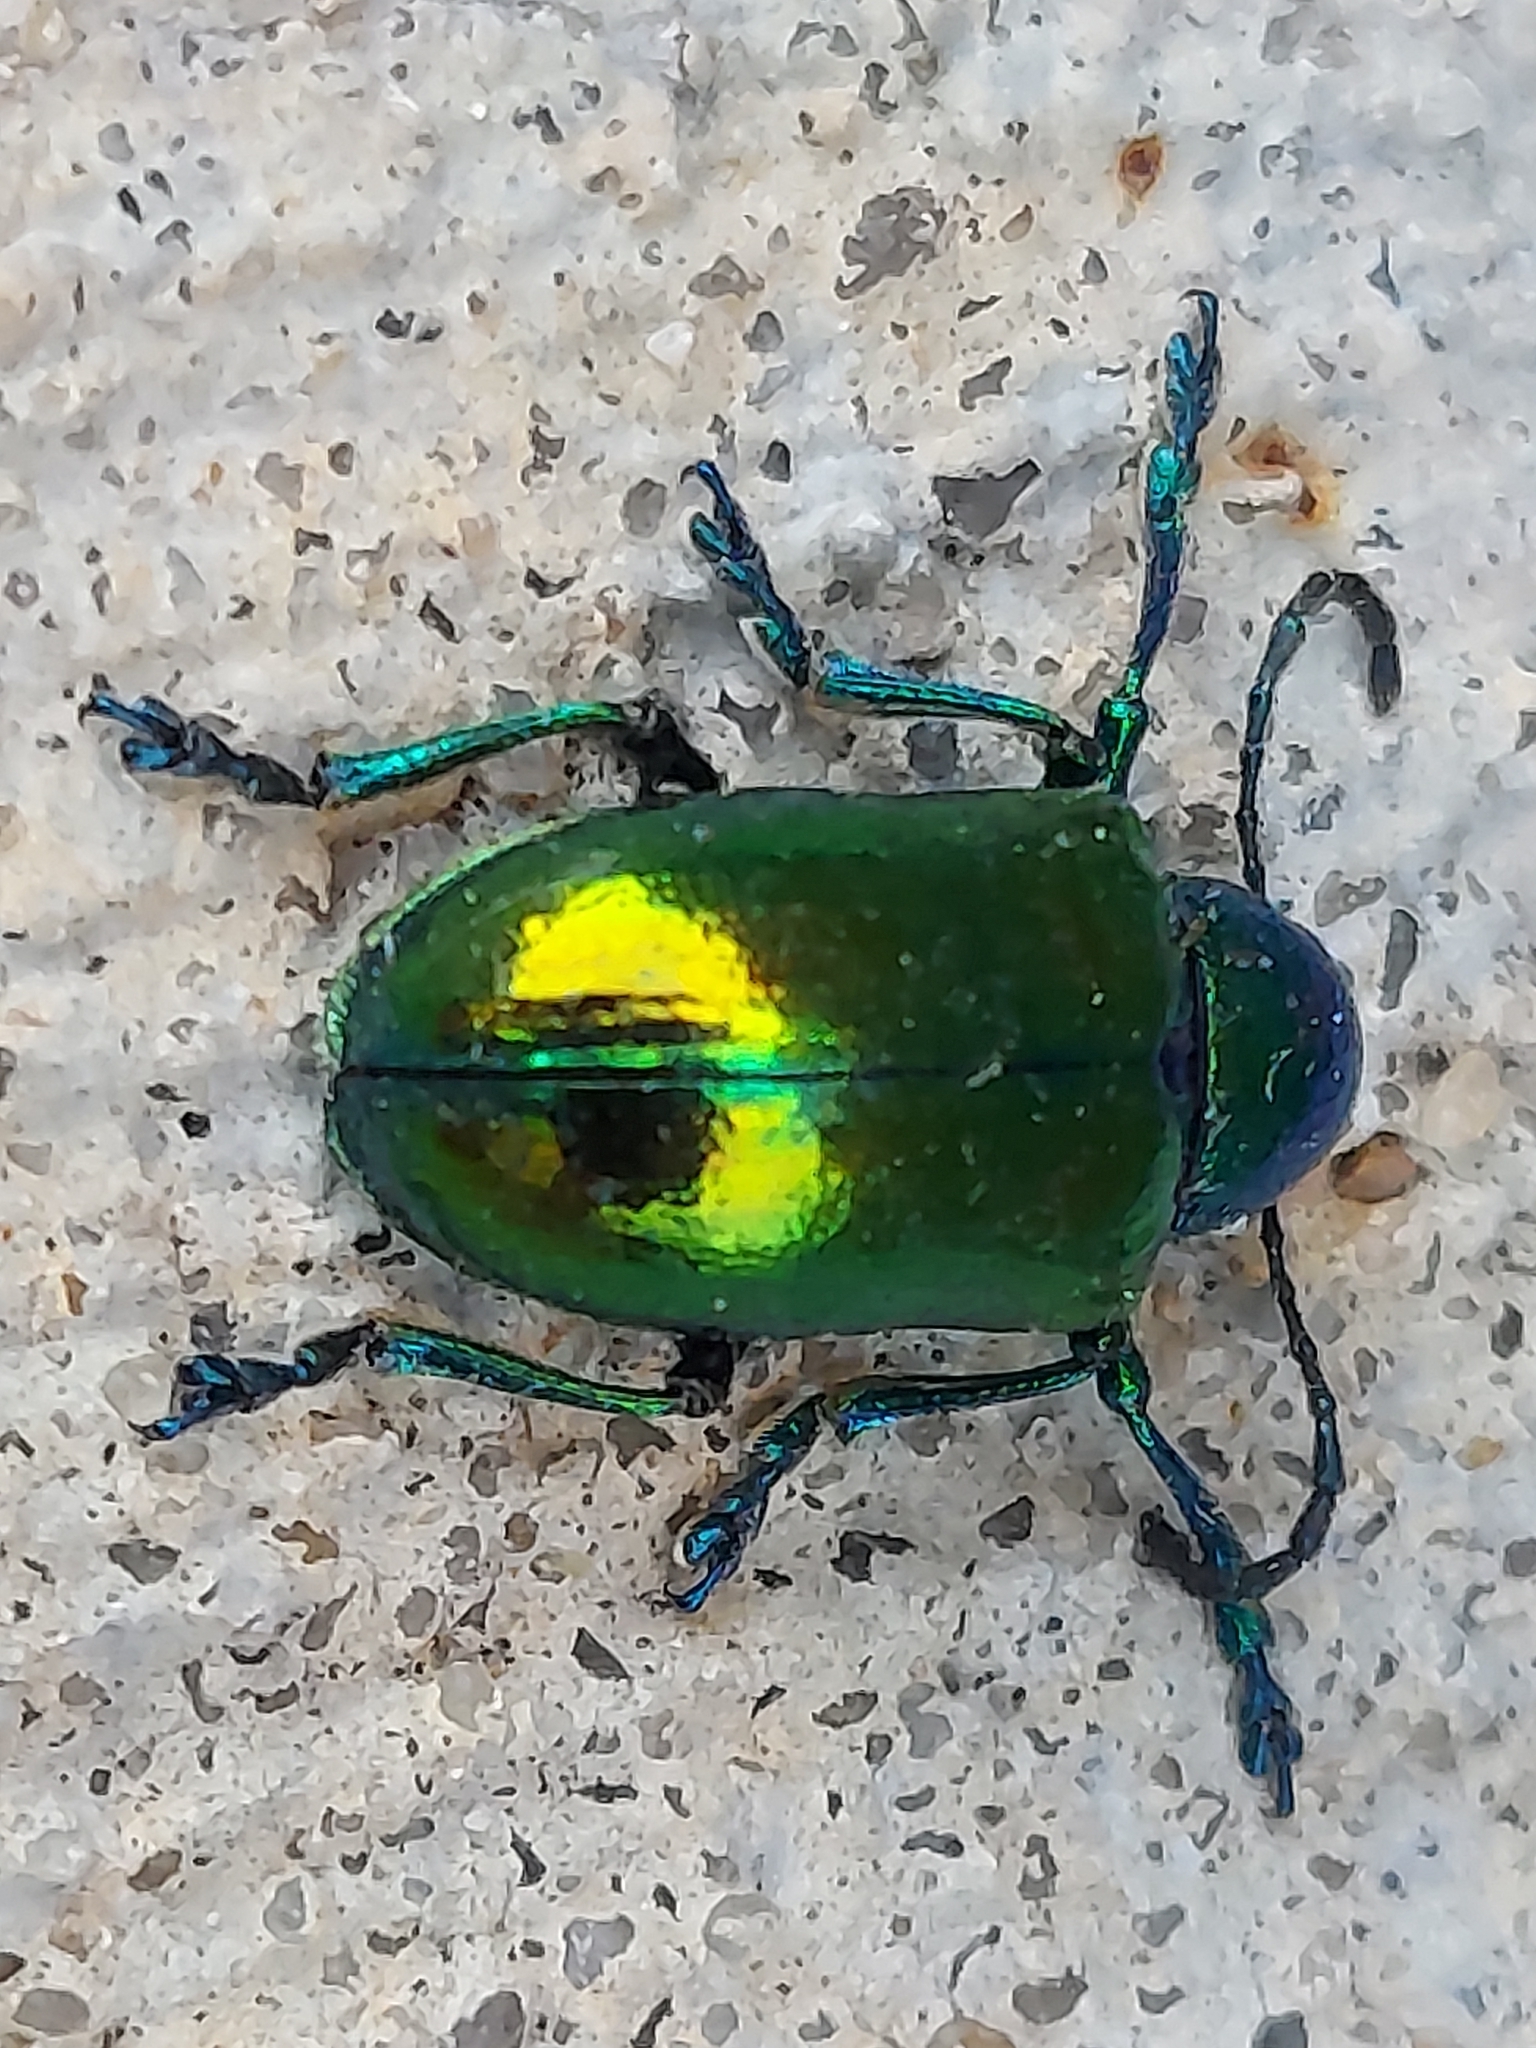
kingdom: Animalia
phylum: Arthropoda
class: Insecta
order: Coleoptera
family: Chrysomelidae
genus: Chrysochus
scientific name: Chrysochus auratus
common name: Dogbane leaf beetle
